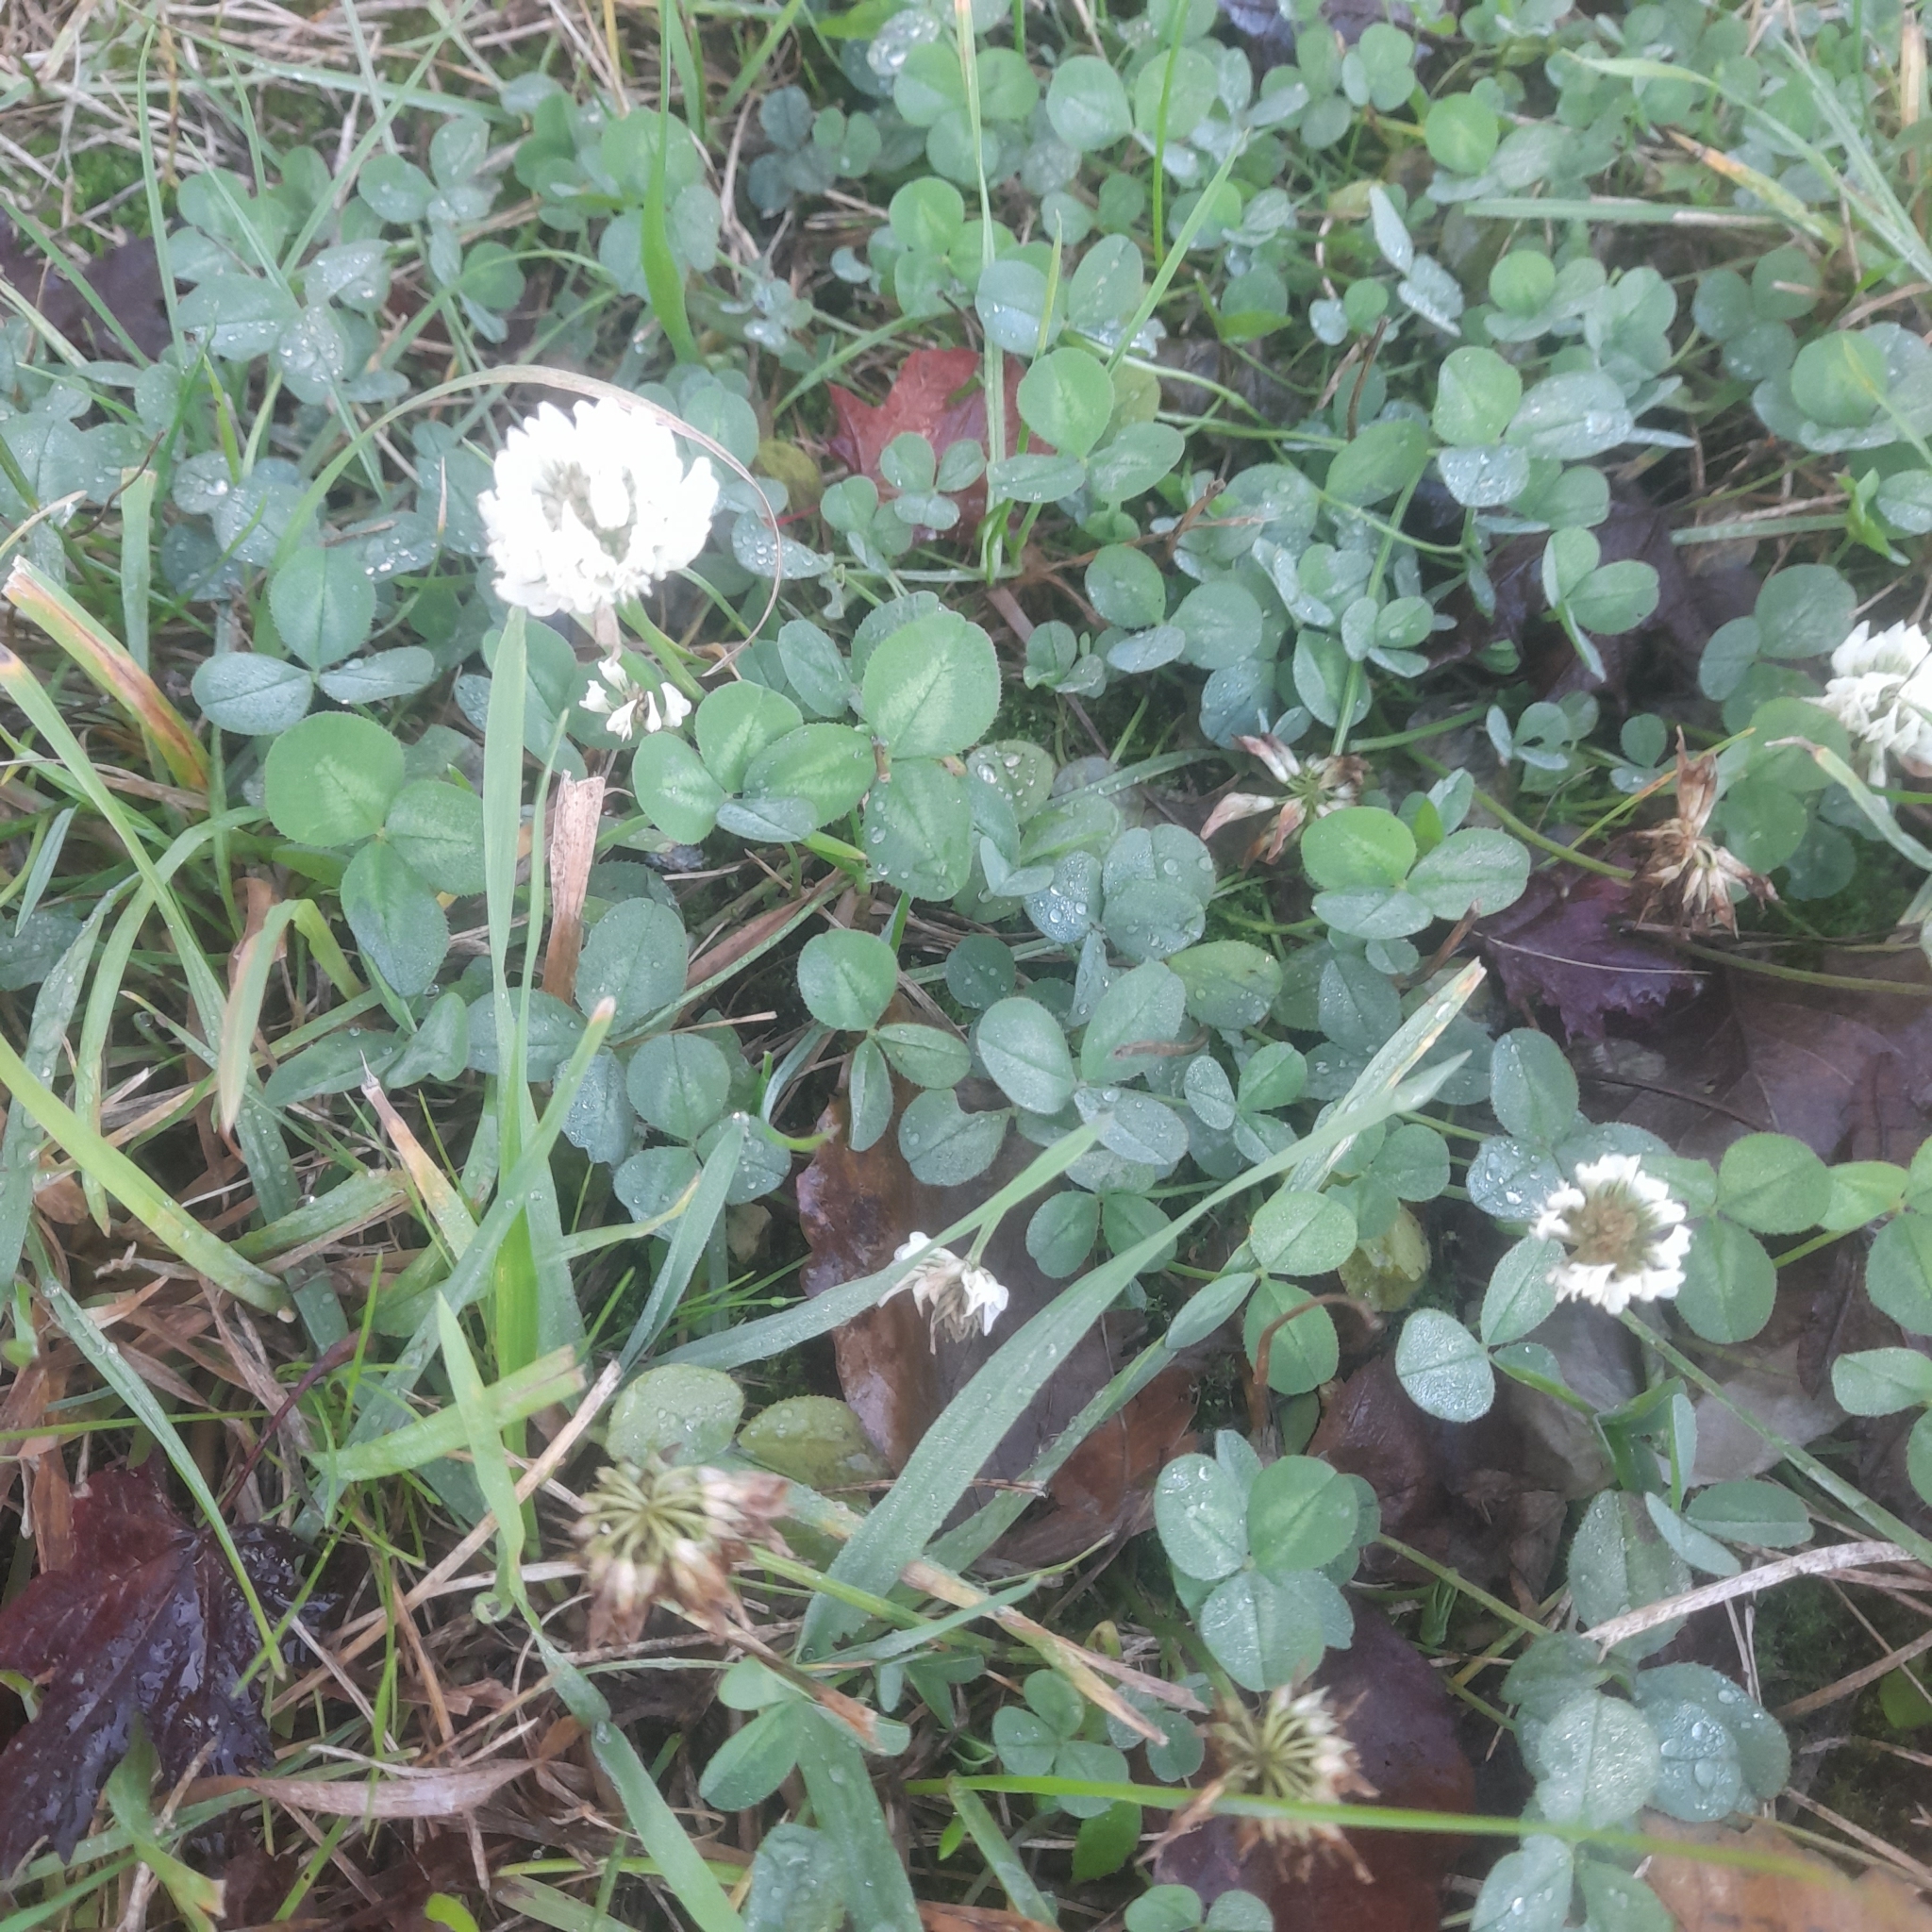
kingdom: Plantae
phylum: Tracheophyta
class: Magnoliopsida
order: Fabales
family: Fabaceae
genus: Trifolium
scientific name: Trifolium repens
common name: White clover
